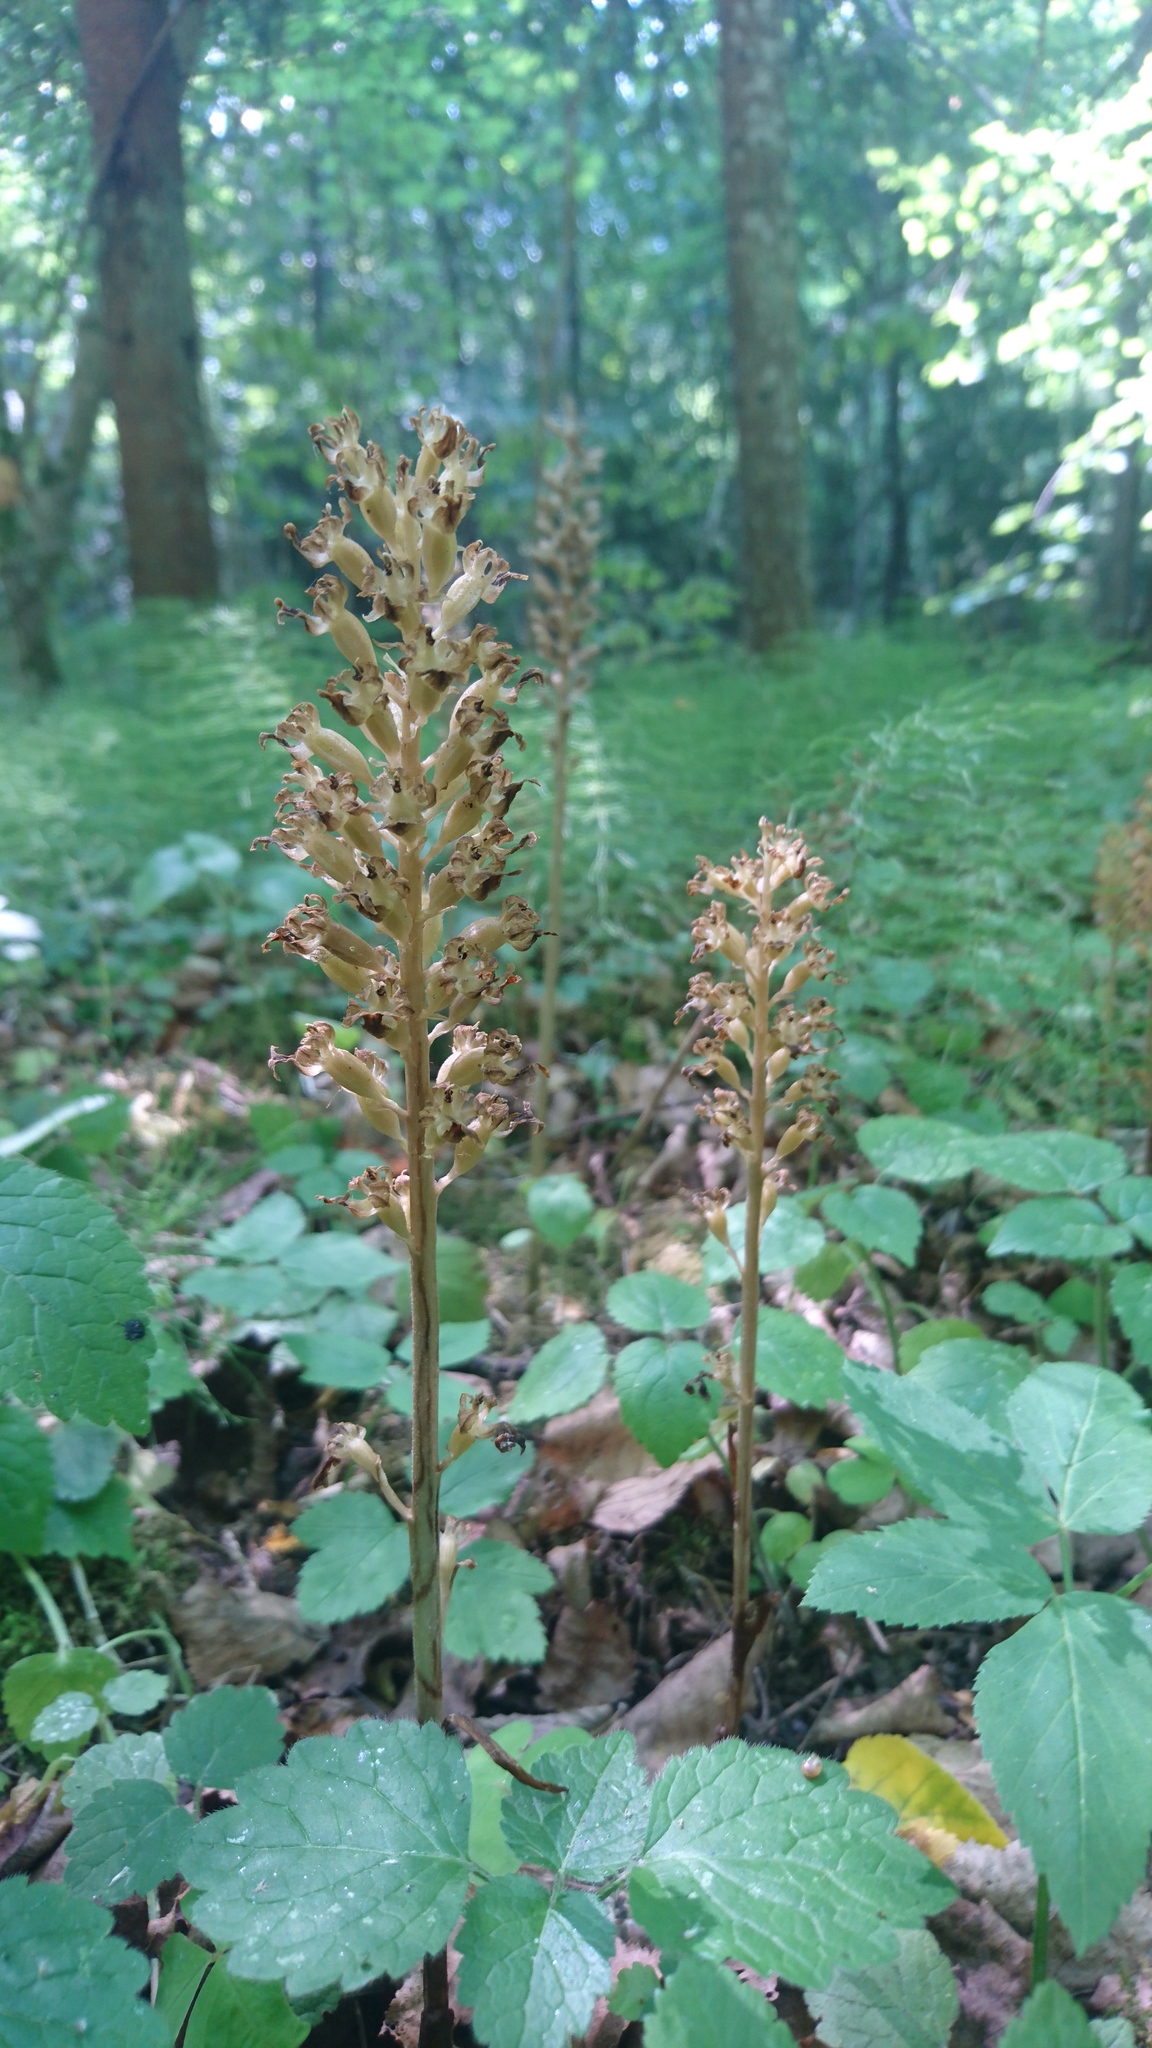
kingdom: Plantae
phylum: Tracheophyta
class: Liliopsida
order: Asparagales
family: Orchidaceae
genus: Neottia
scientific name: Neottia nidus-avis
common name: Bird's-nest orchid
